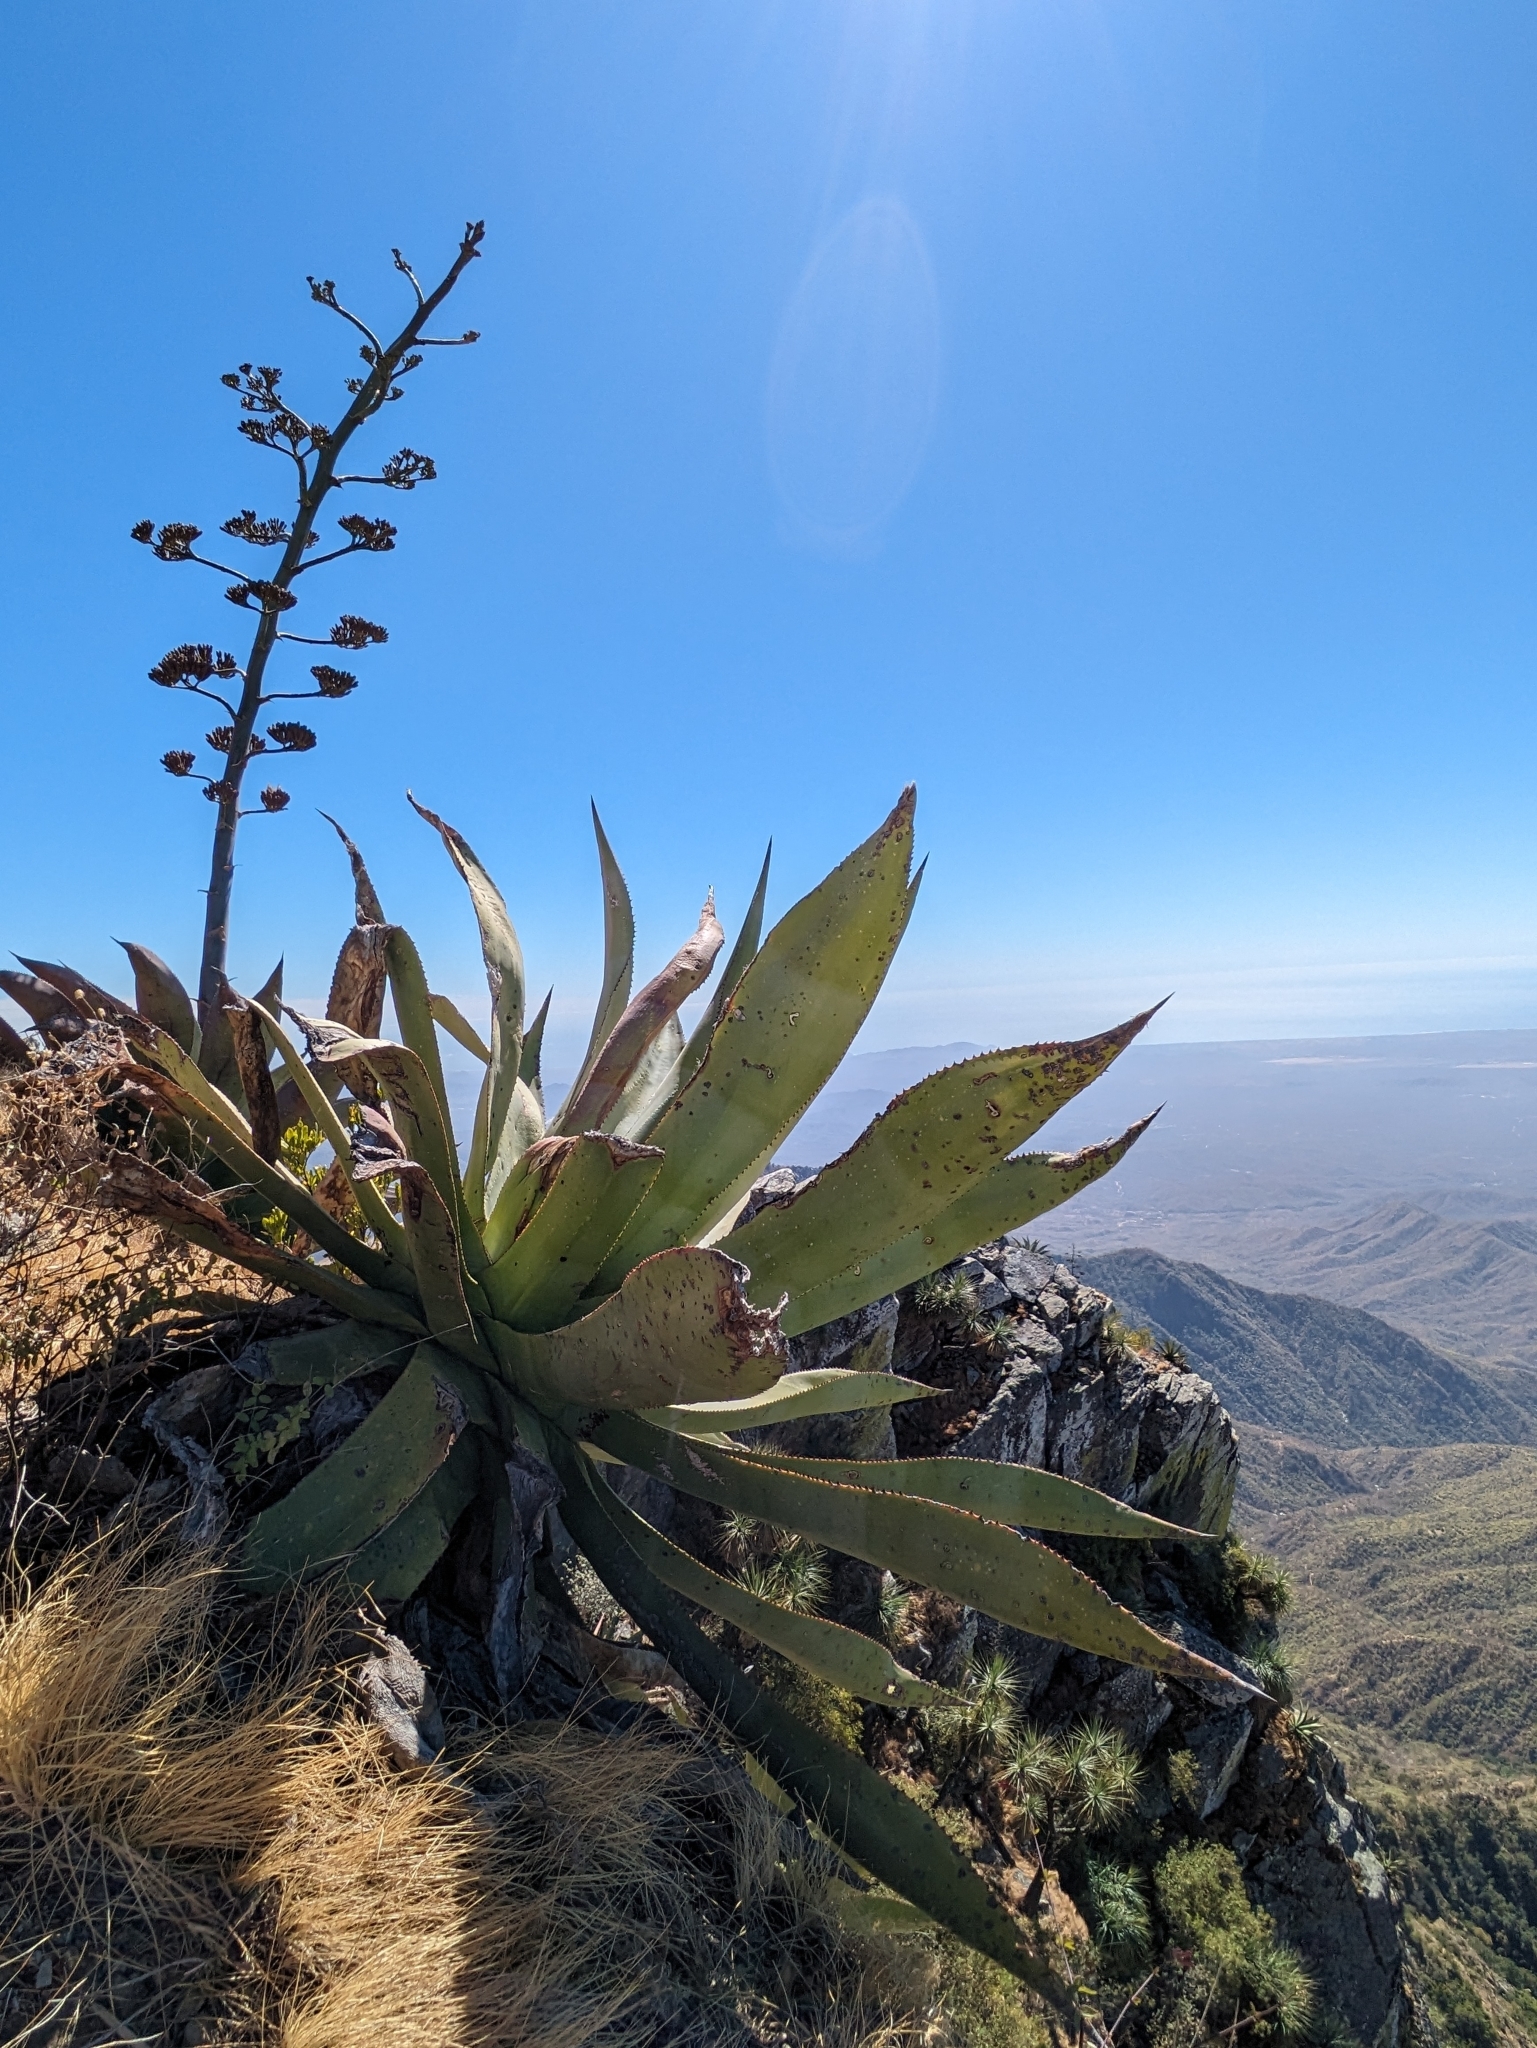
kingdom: Plantae
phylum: Tracheophyta
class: Liliopsida
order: Asparagales
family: Asparagaceae
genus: Agave
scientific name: Agave aurea
